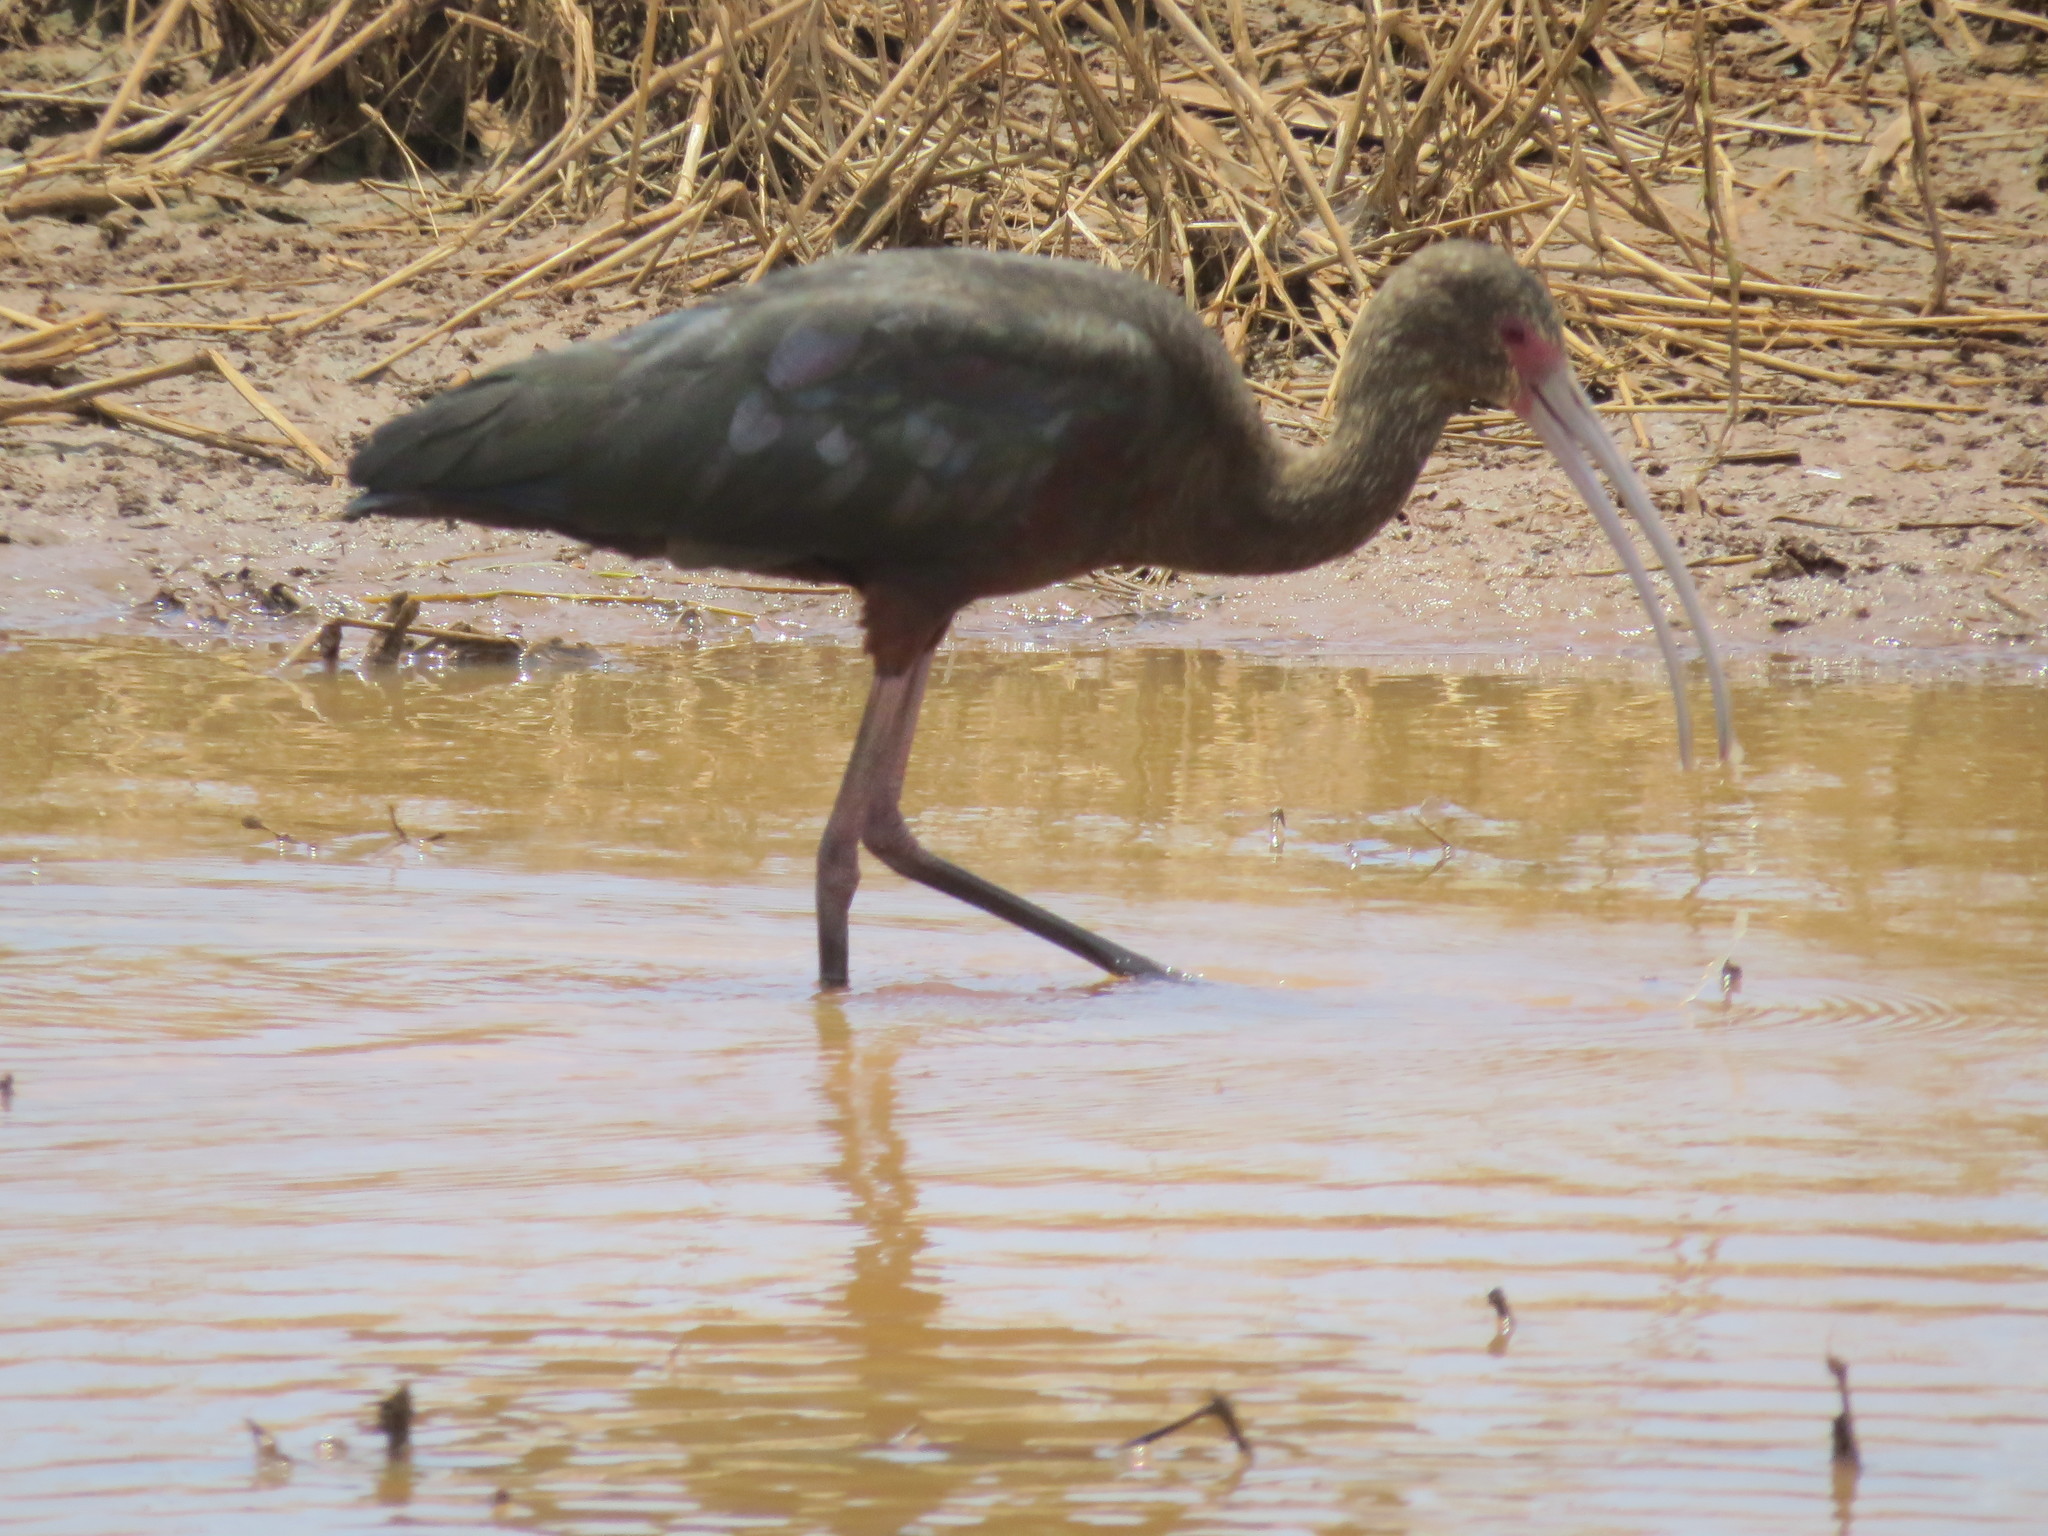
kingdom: Animalia
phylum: Chordata
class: Aves
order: Pelecaniformes
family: Threskiornithidae
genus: Plegadis
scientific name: Plegadis chihi
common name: White-faced ibis
